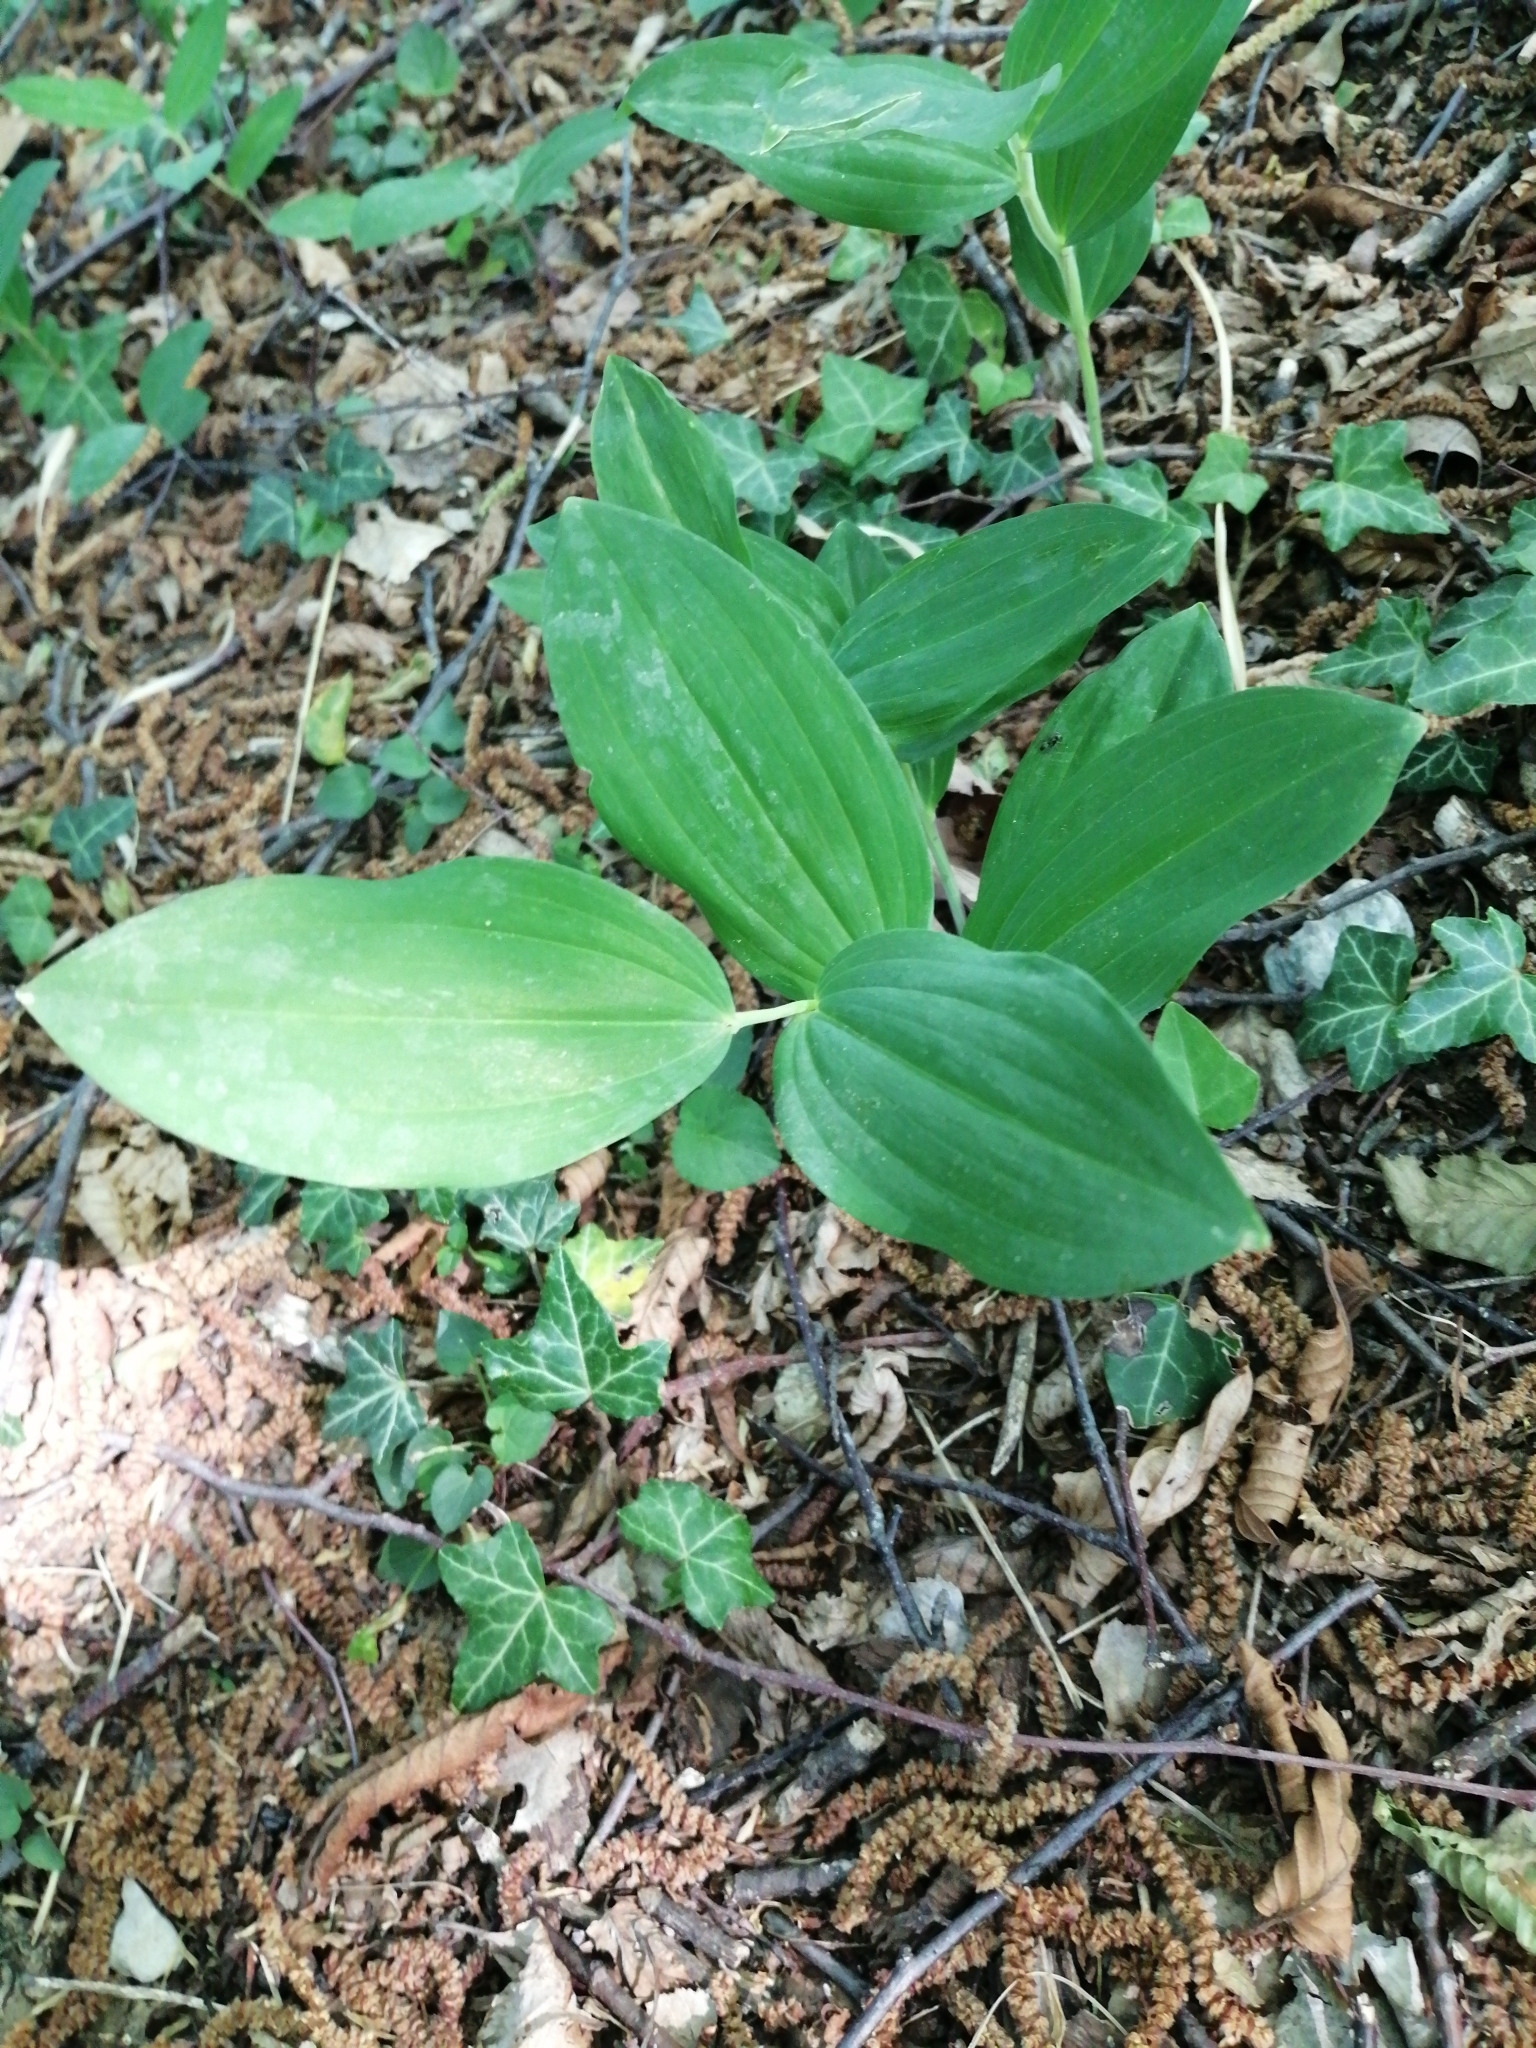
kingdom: Plantae
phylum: Tracheophyta
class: Liliopsida
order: Asparagales
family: Asparagaceae
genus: Polygonatum
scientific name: Polygonatum multiflorum
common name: Solomon's-seal
